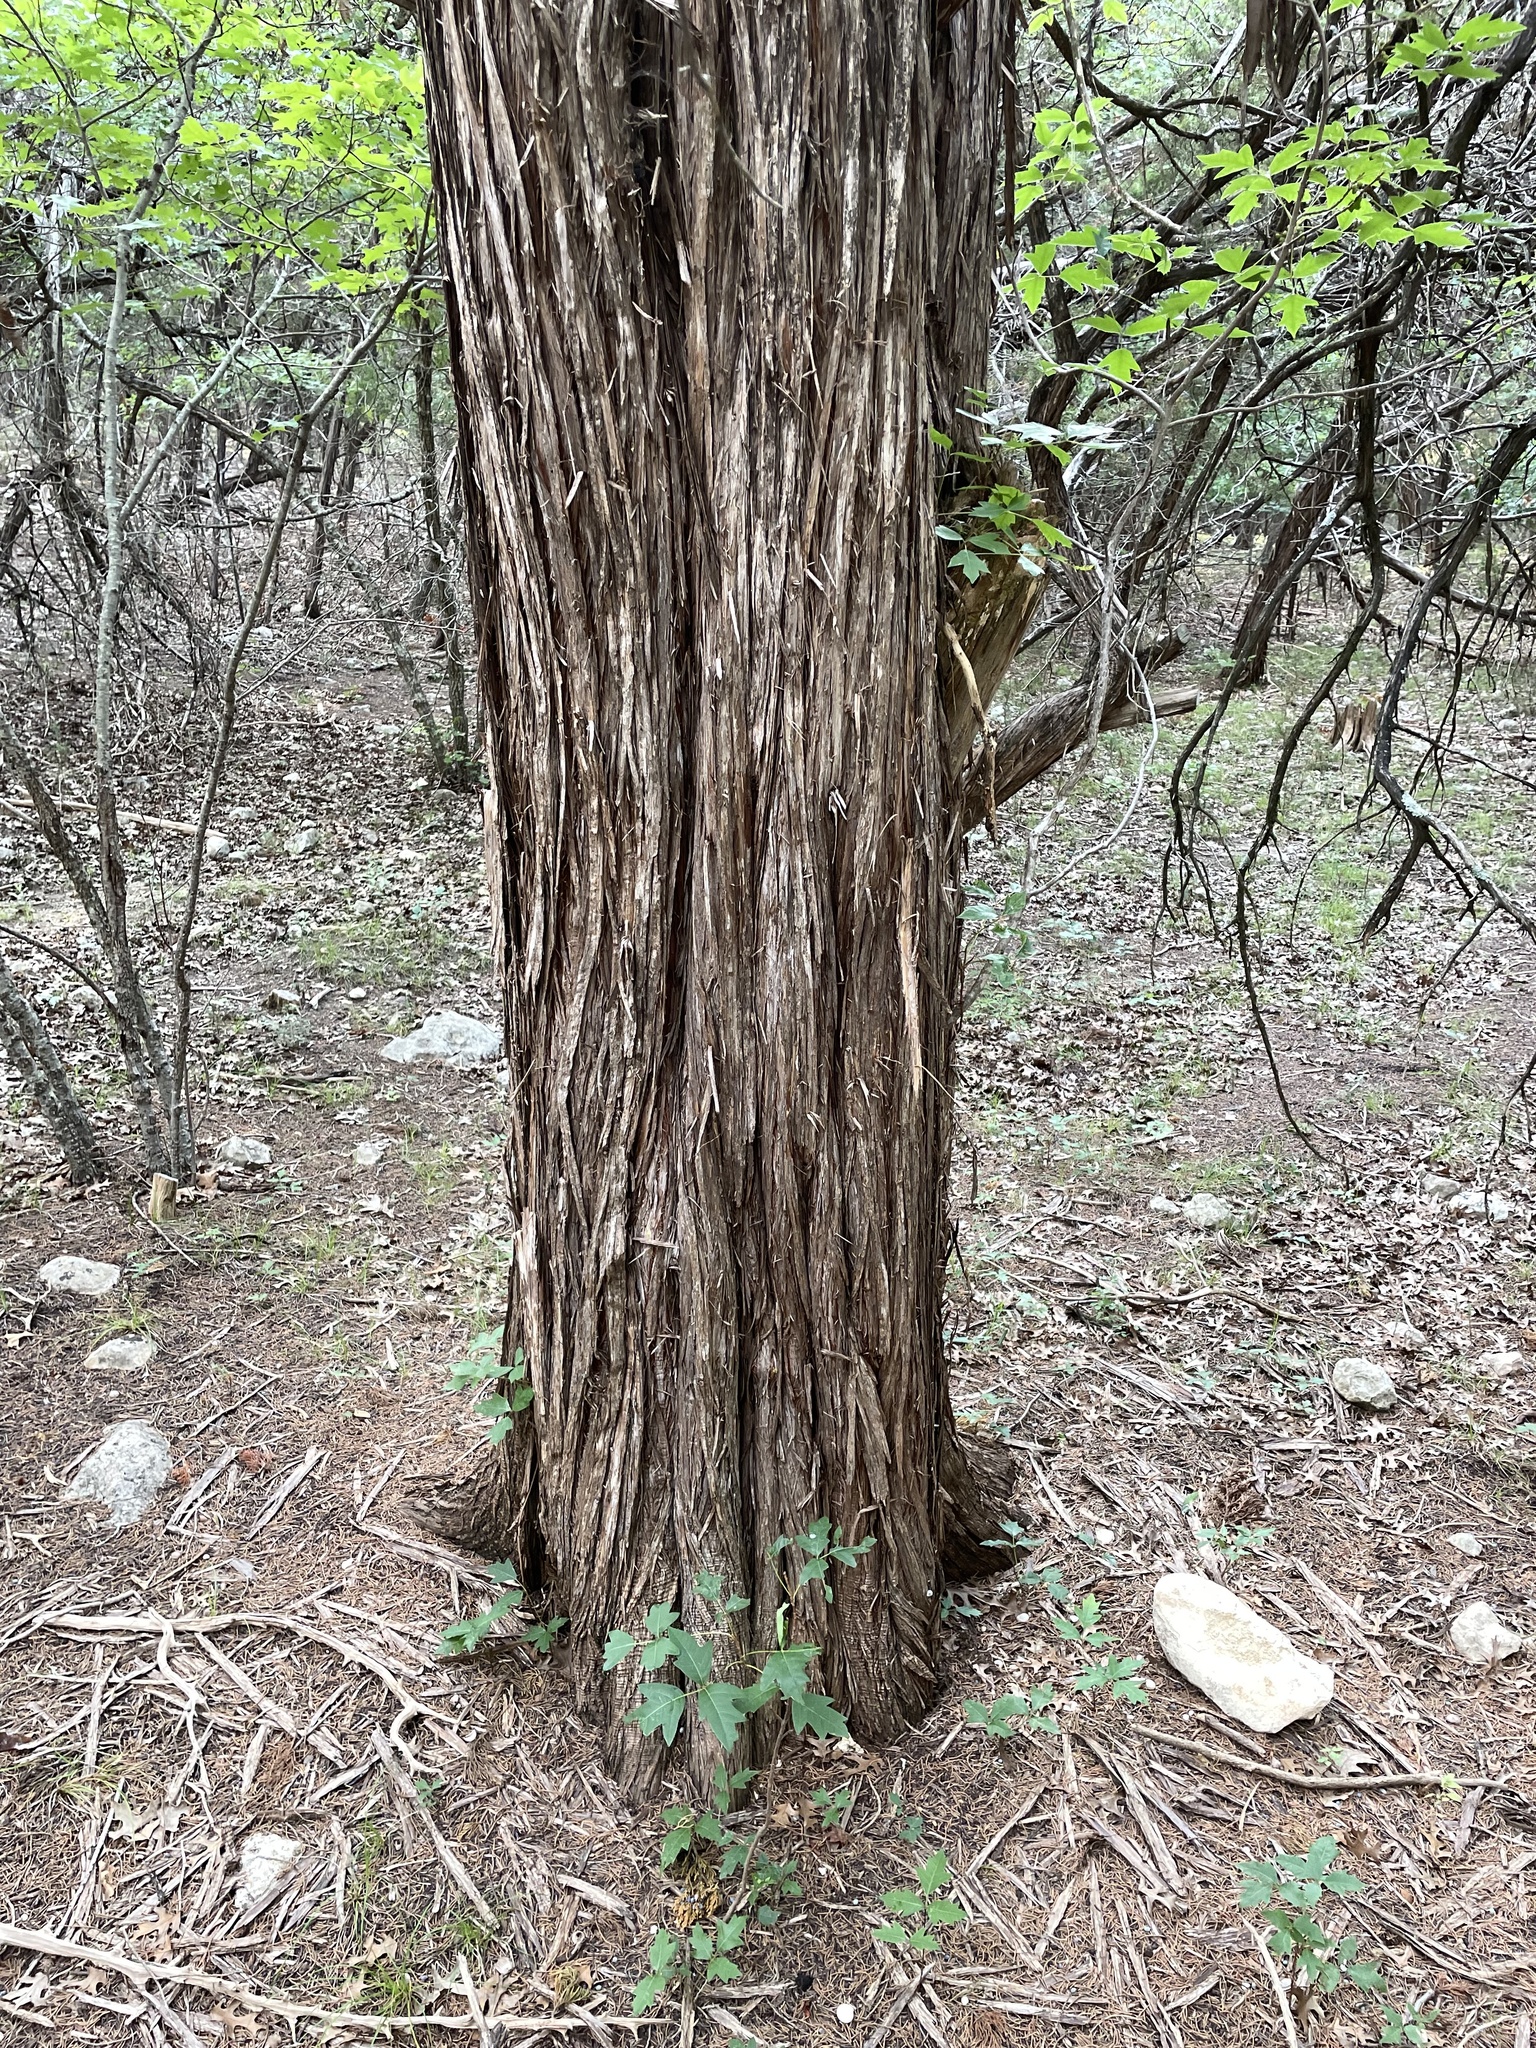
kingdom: Plantae
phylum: Tracheophyta
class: Pinopsida
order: Pinales
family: Cupressaceae
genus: Juniperus
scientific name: Juniperus ashei
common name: Mexican juniper
